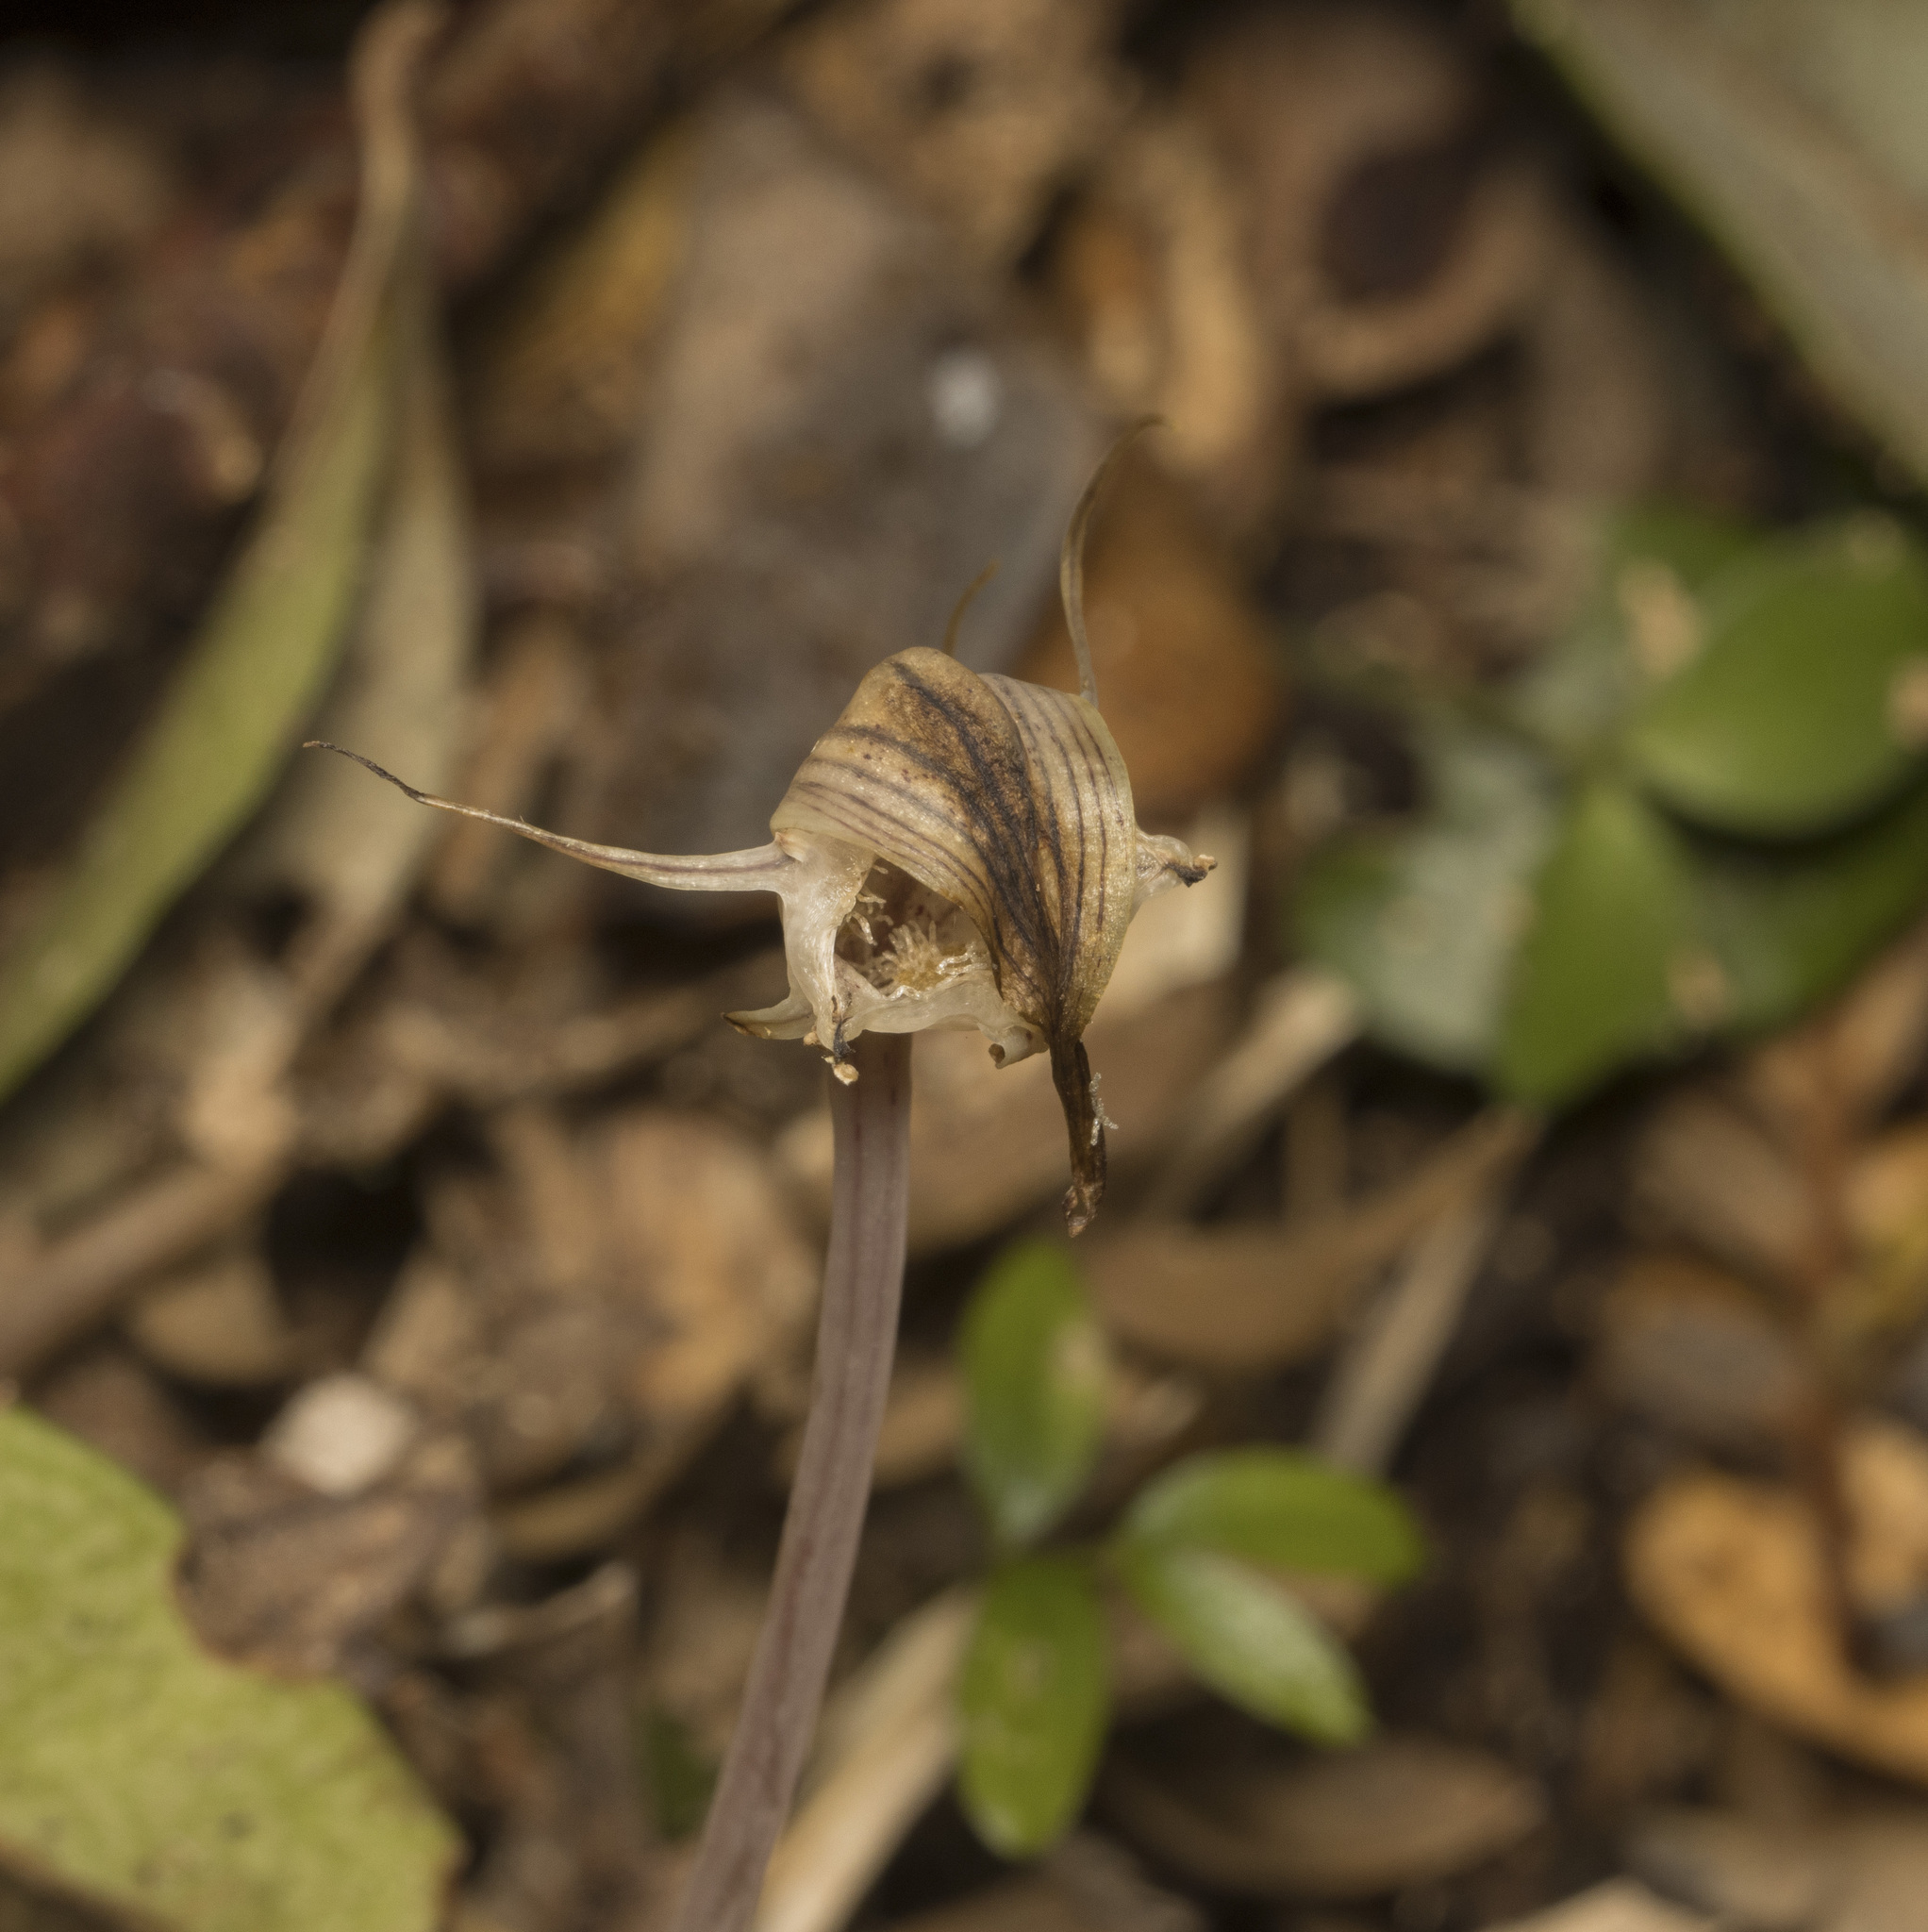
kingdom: Plantae
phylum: Tracheophyta
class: Liliopsida
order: Liliales
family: Corsiaceae
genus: Arachnitis
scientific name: Arachnitis uniflora
